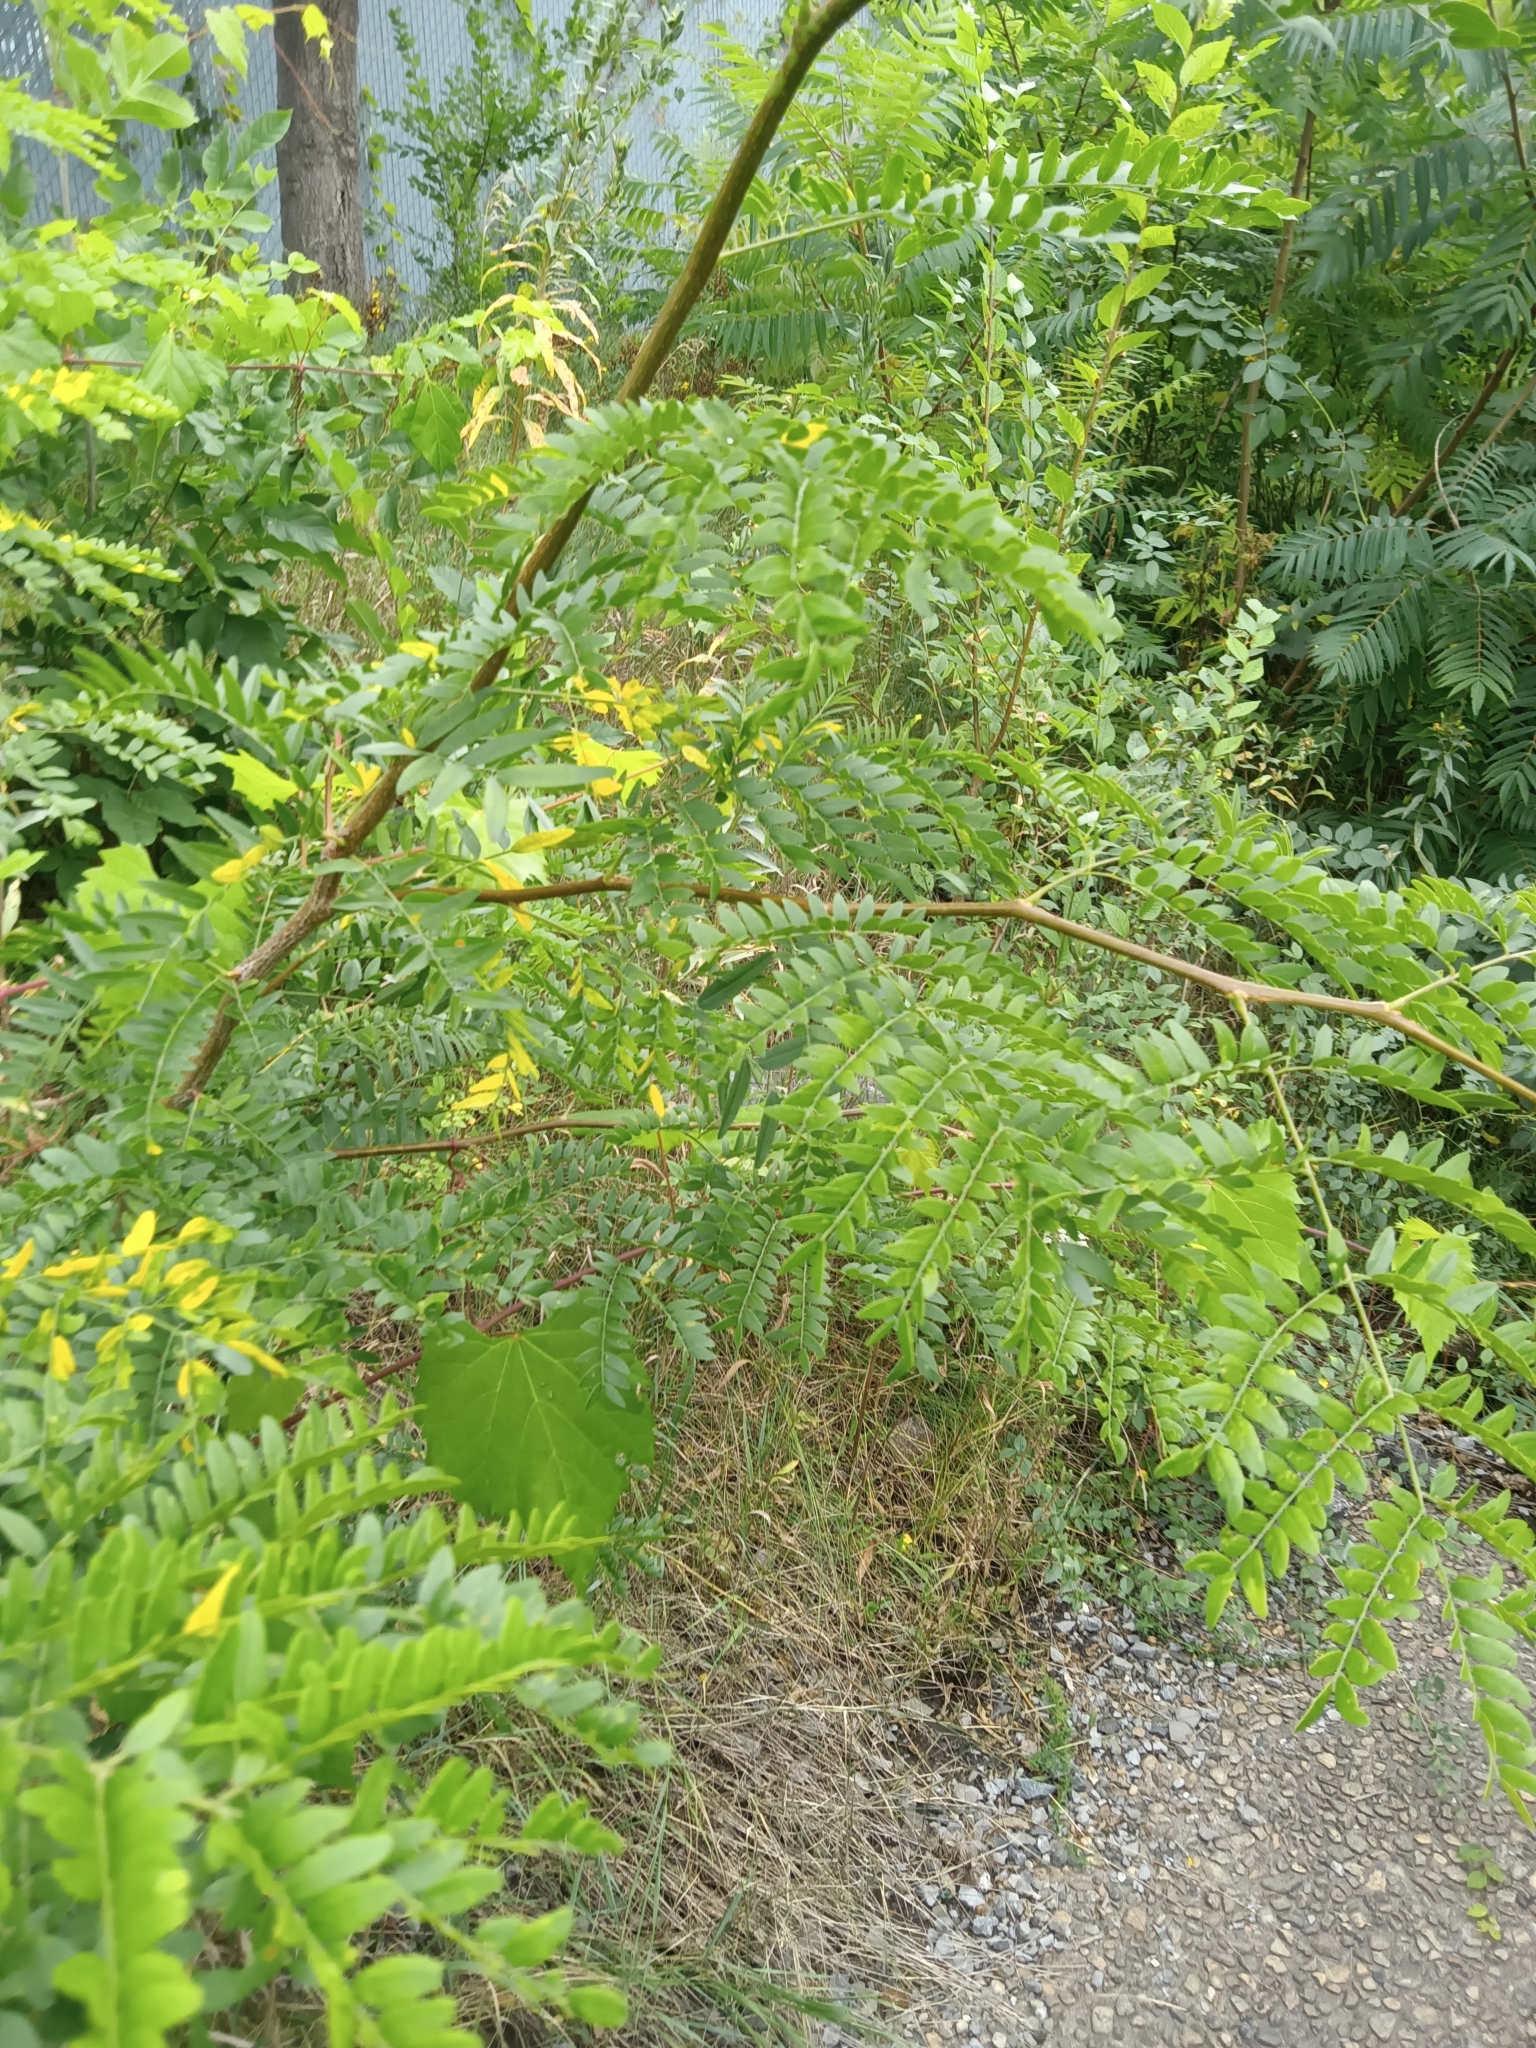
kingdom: Plantae
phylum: Tracheophyta
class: Magnoliopsida
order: Fabales
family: Fabaceae
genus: Gleditsia
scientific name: Gleditsia triacanthos
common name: Common honeylocust
